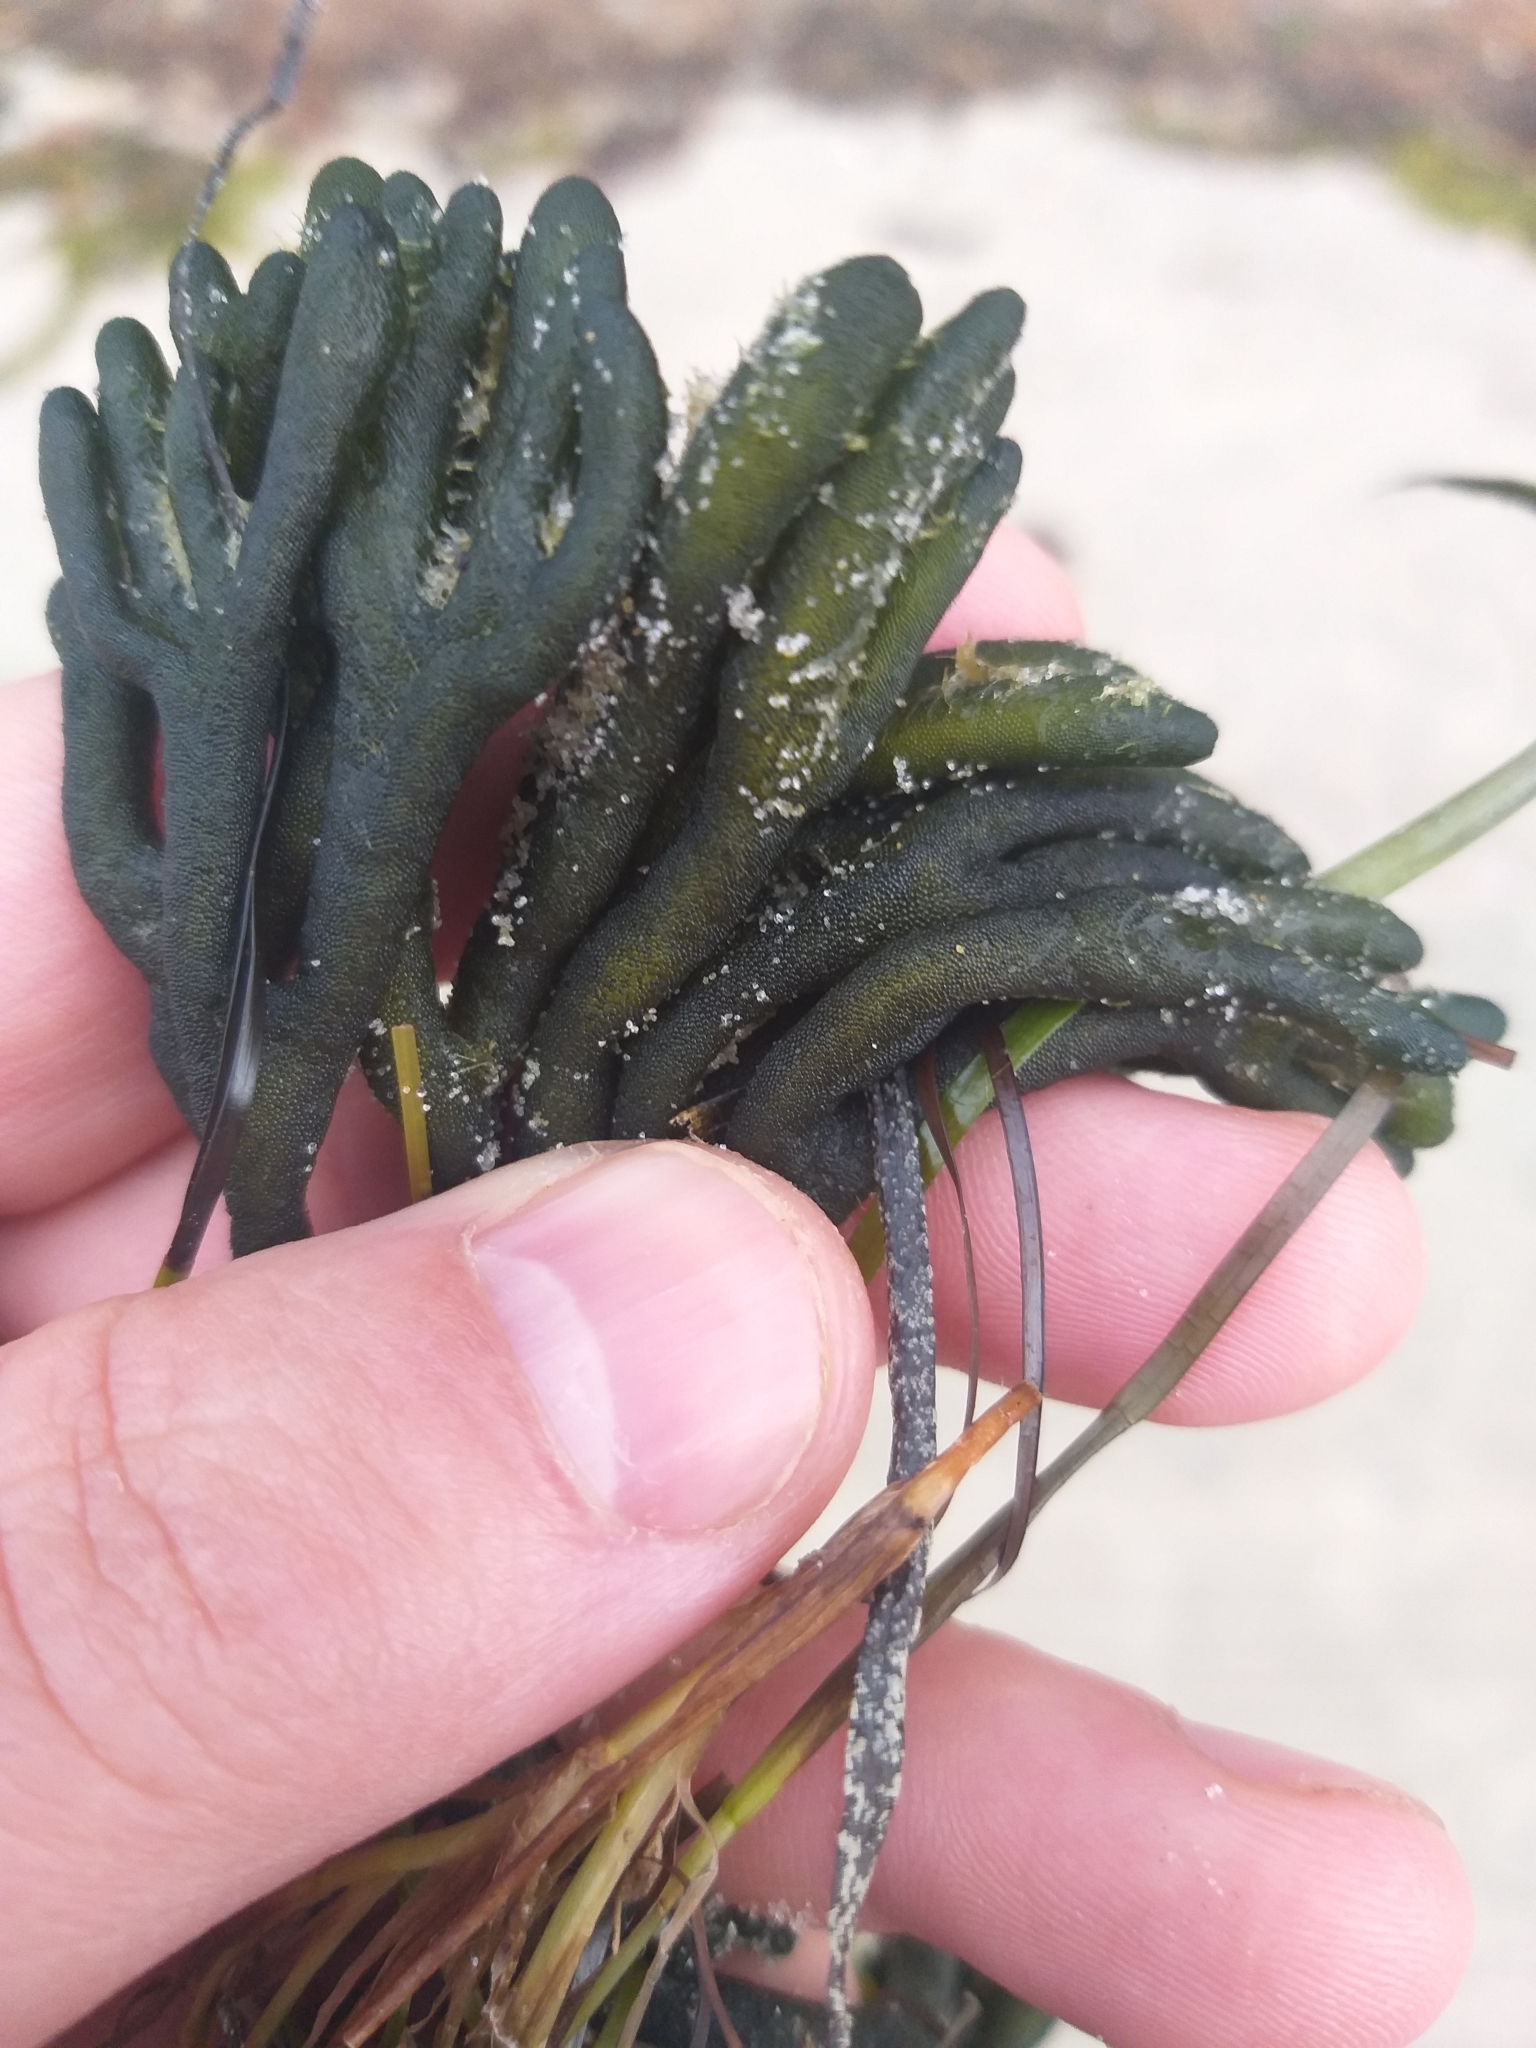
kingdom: Plantae
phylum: Chlorophyta
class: Ulvophyceae
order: Bryopsidales
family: Codiaceae
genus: Codium
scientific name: Codium fragile
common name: Dead man's fingers
